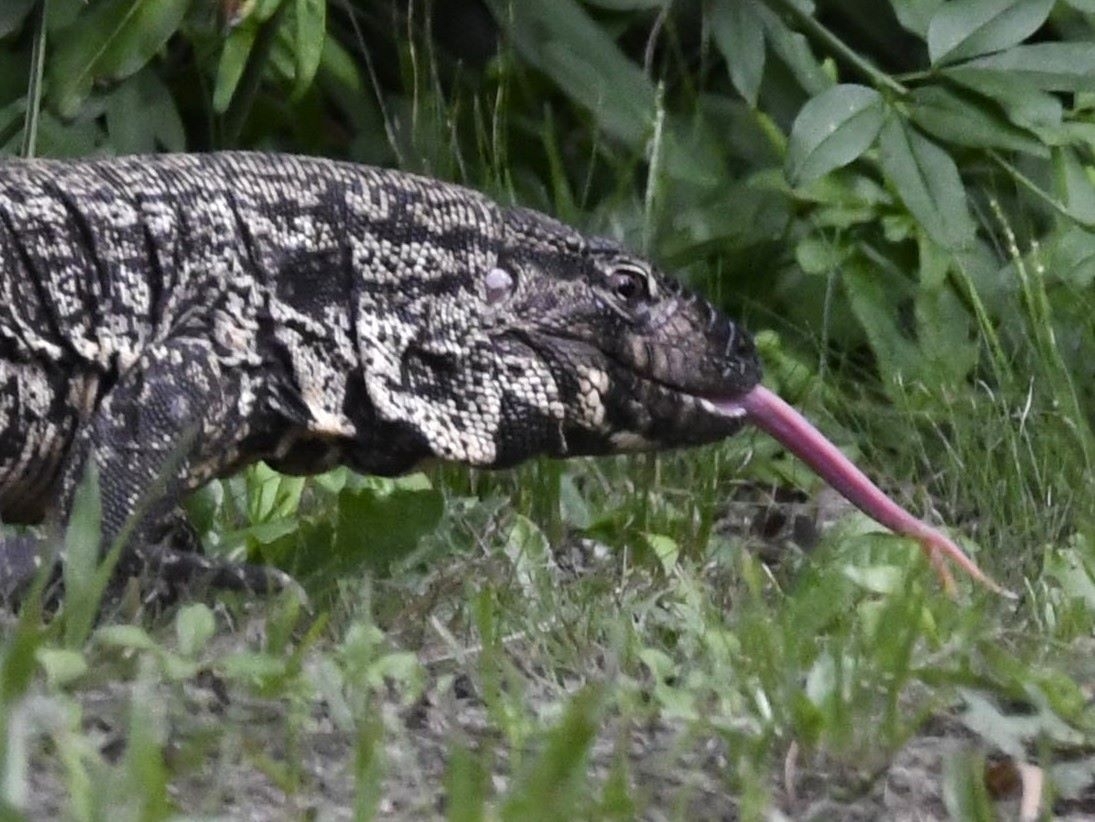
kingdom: Animalia
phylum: Chordata
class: Squamata
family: Teiidae
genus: Salvator
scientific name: Salvator merianae
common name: Argentine black and white tegu
